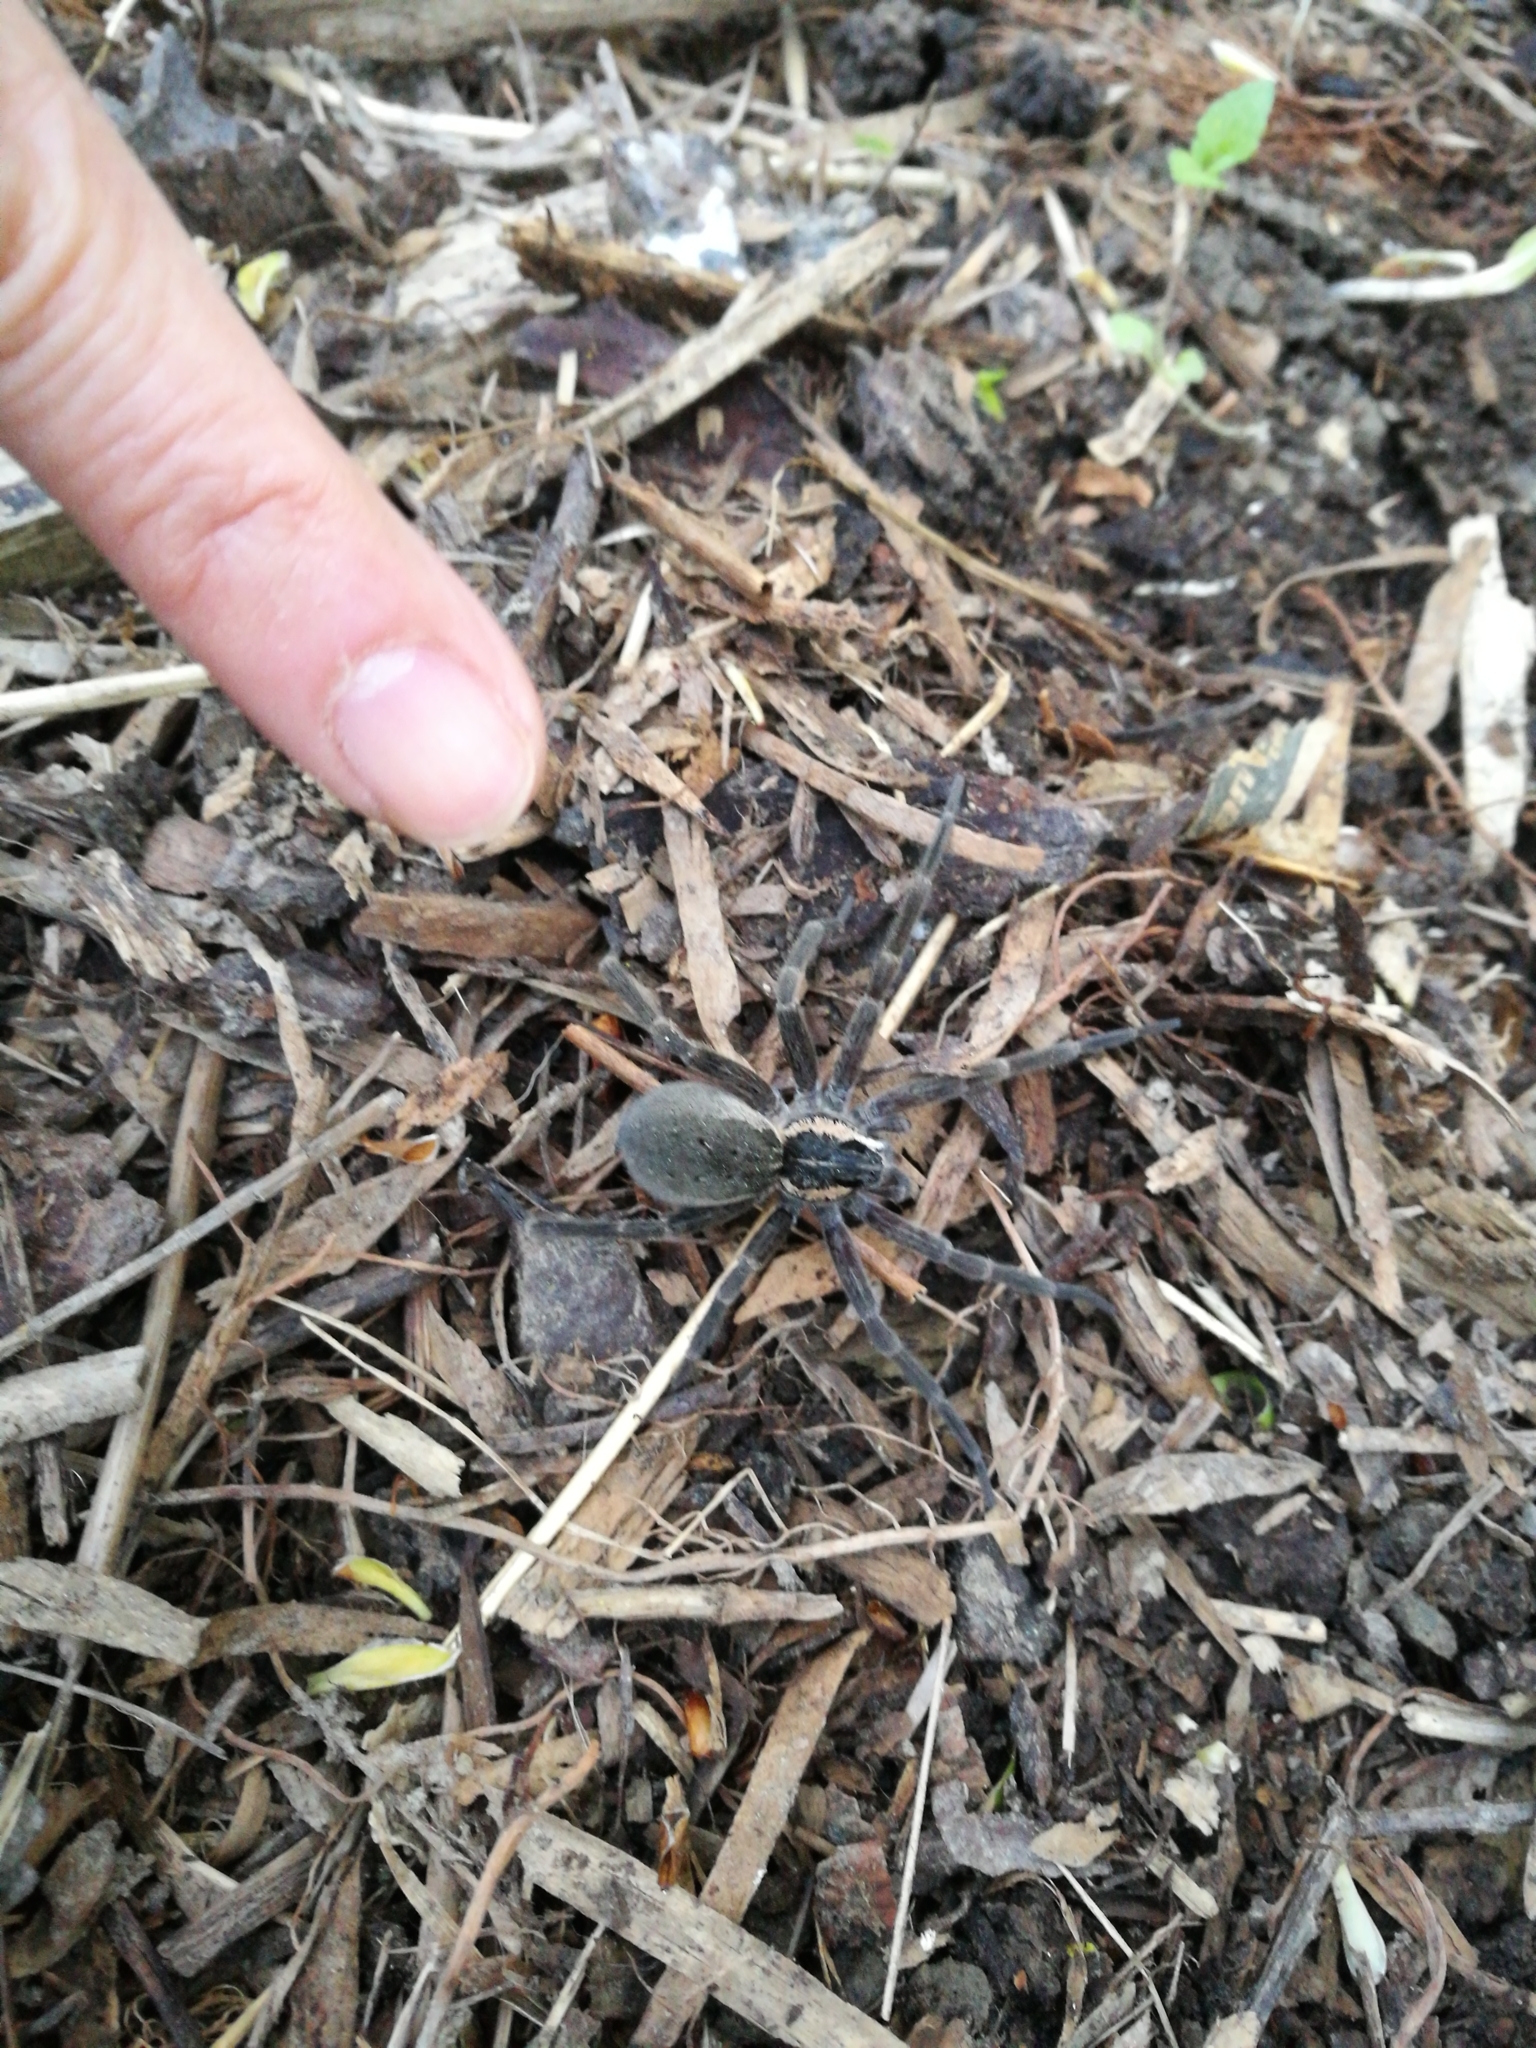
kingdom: Animalia
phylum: Arthropoda
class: Arachnida
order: Araneae
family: Pisauridae
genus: Dolomedes
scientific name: Dolomedes aquaticus
